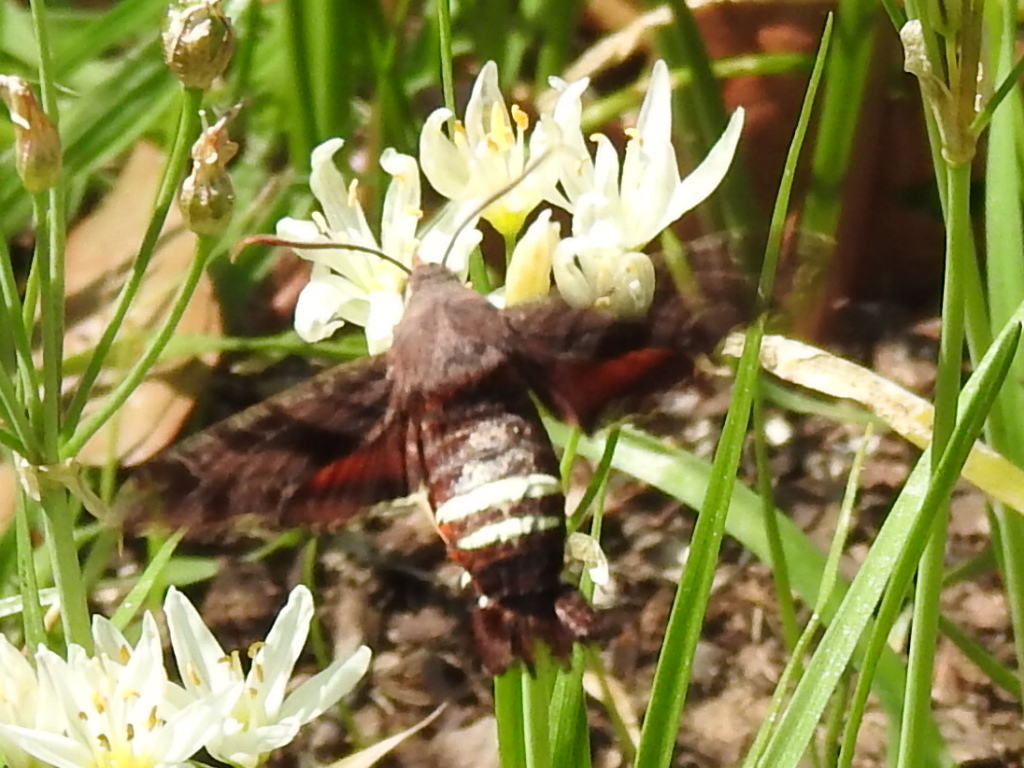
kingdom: Animalia
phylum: Arthropoda
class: Insecta
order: Lepidoptera
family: Sphingidae
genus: Amphion
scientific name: Amphion floridensis
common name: Nessus sphinx
